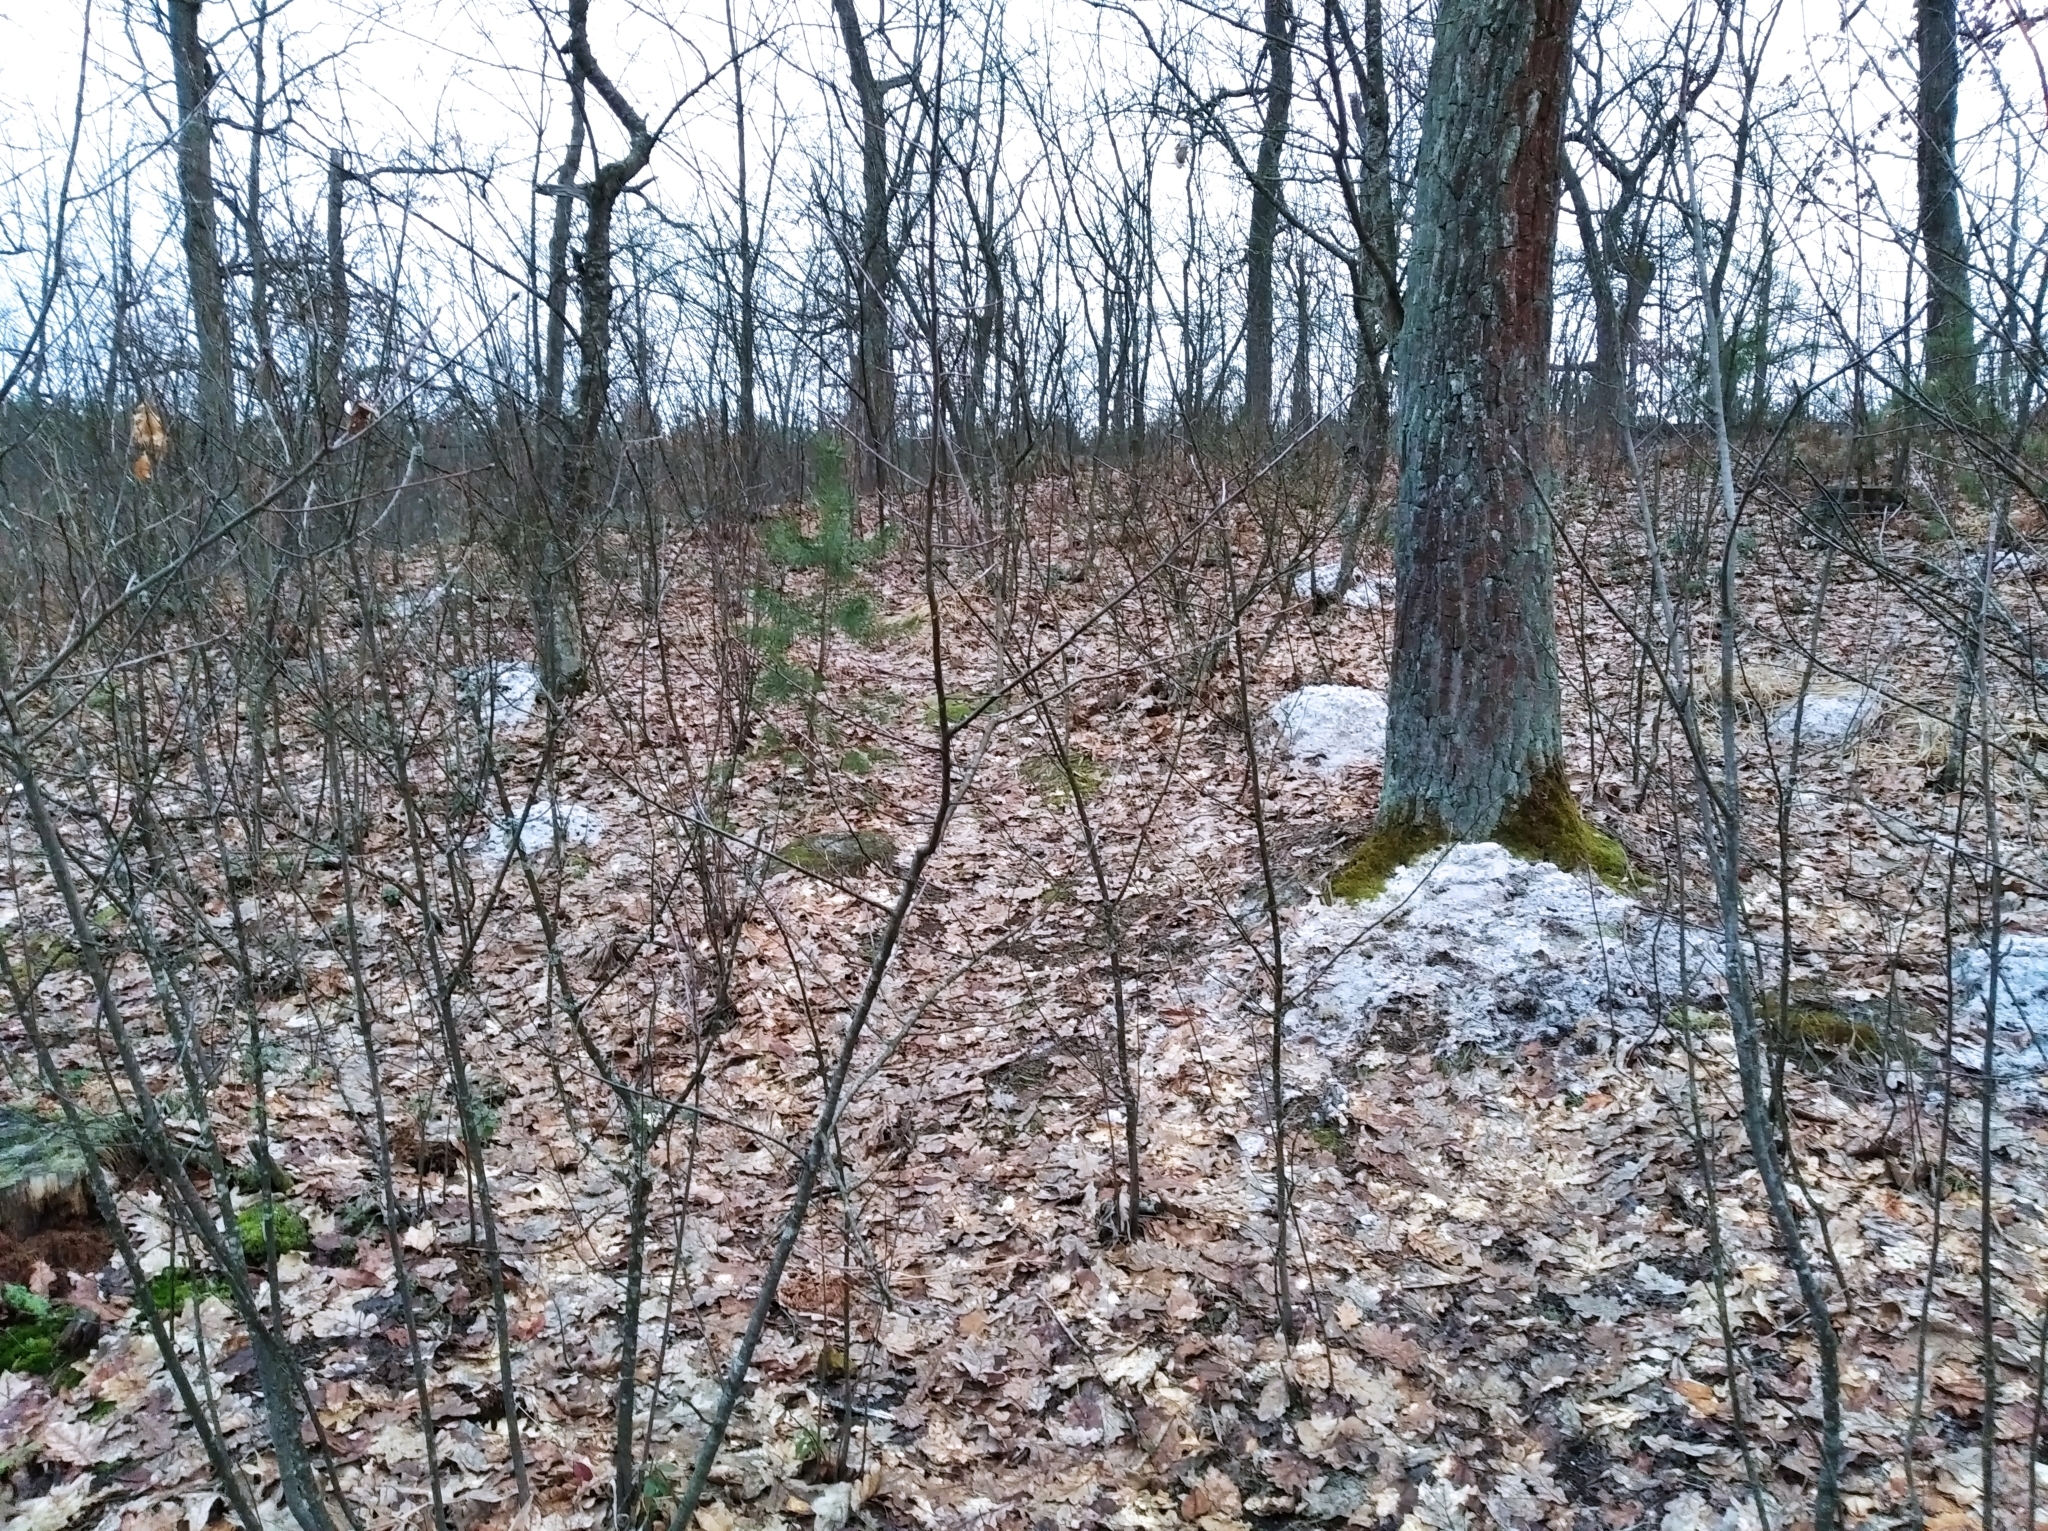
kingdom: Animalia
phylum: Chordata
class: Mammalia
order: Soricomorpha
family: Talpidae
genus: Talpa
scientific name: Talpa europaea
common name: European mole
